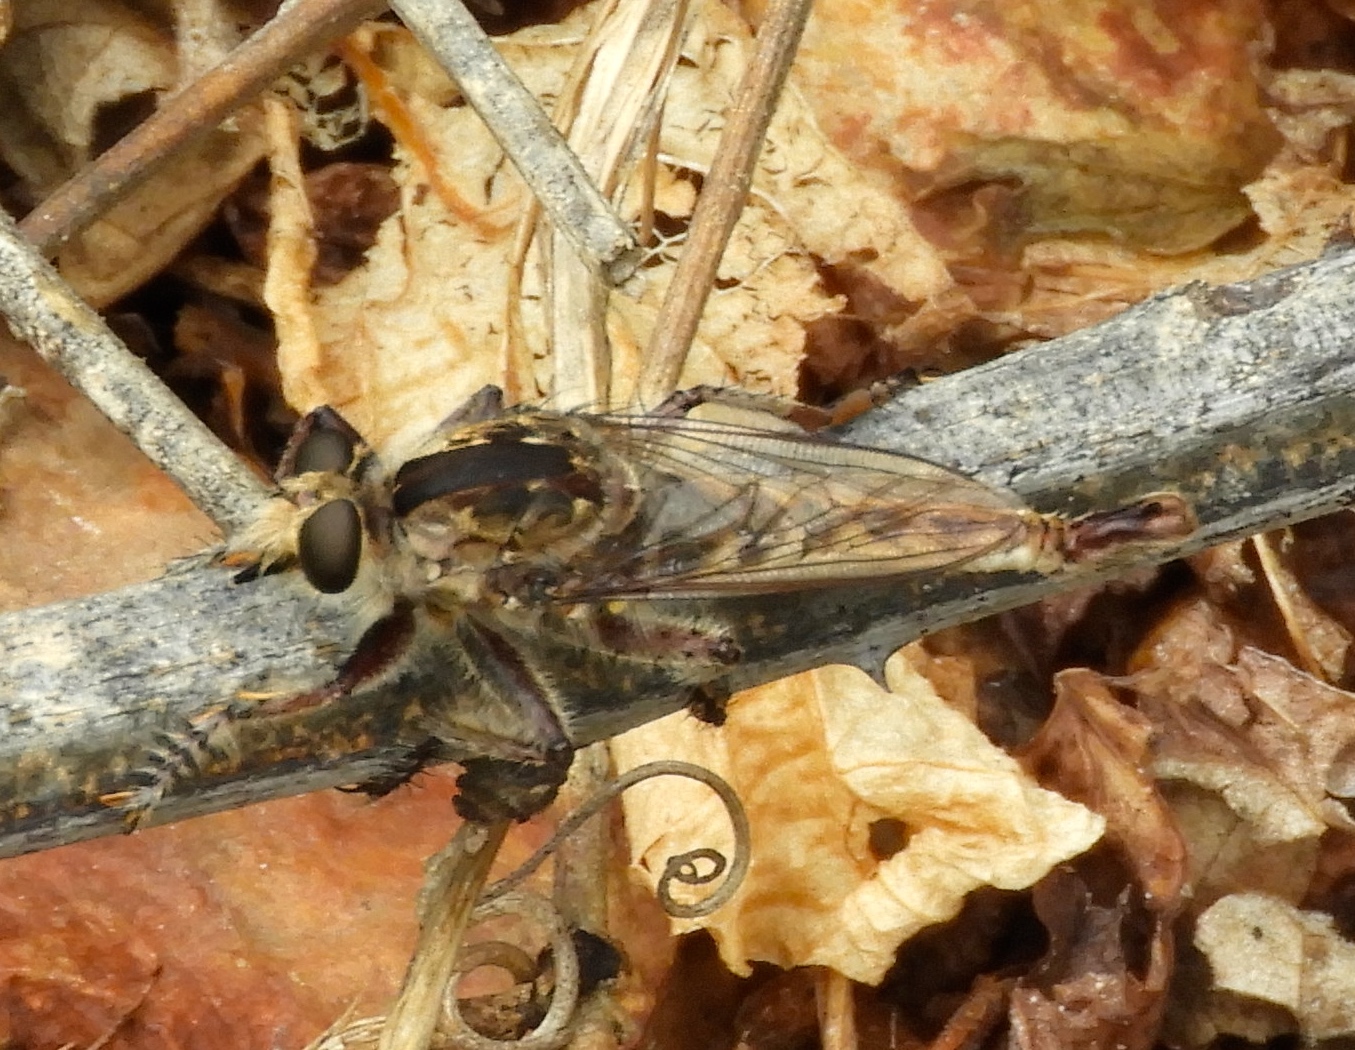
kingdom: Animalia
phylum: Arthropoda
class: Insecta
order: Diptera
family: Asilidae
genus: Efferia
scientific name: Efferia
